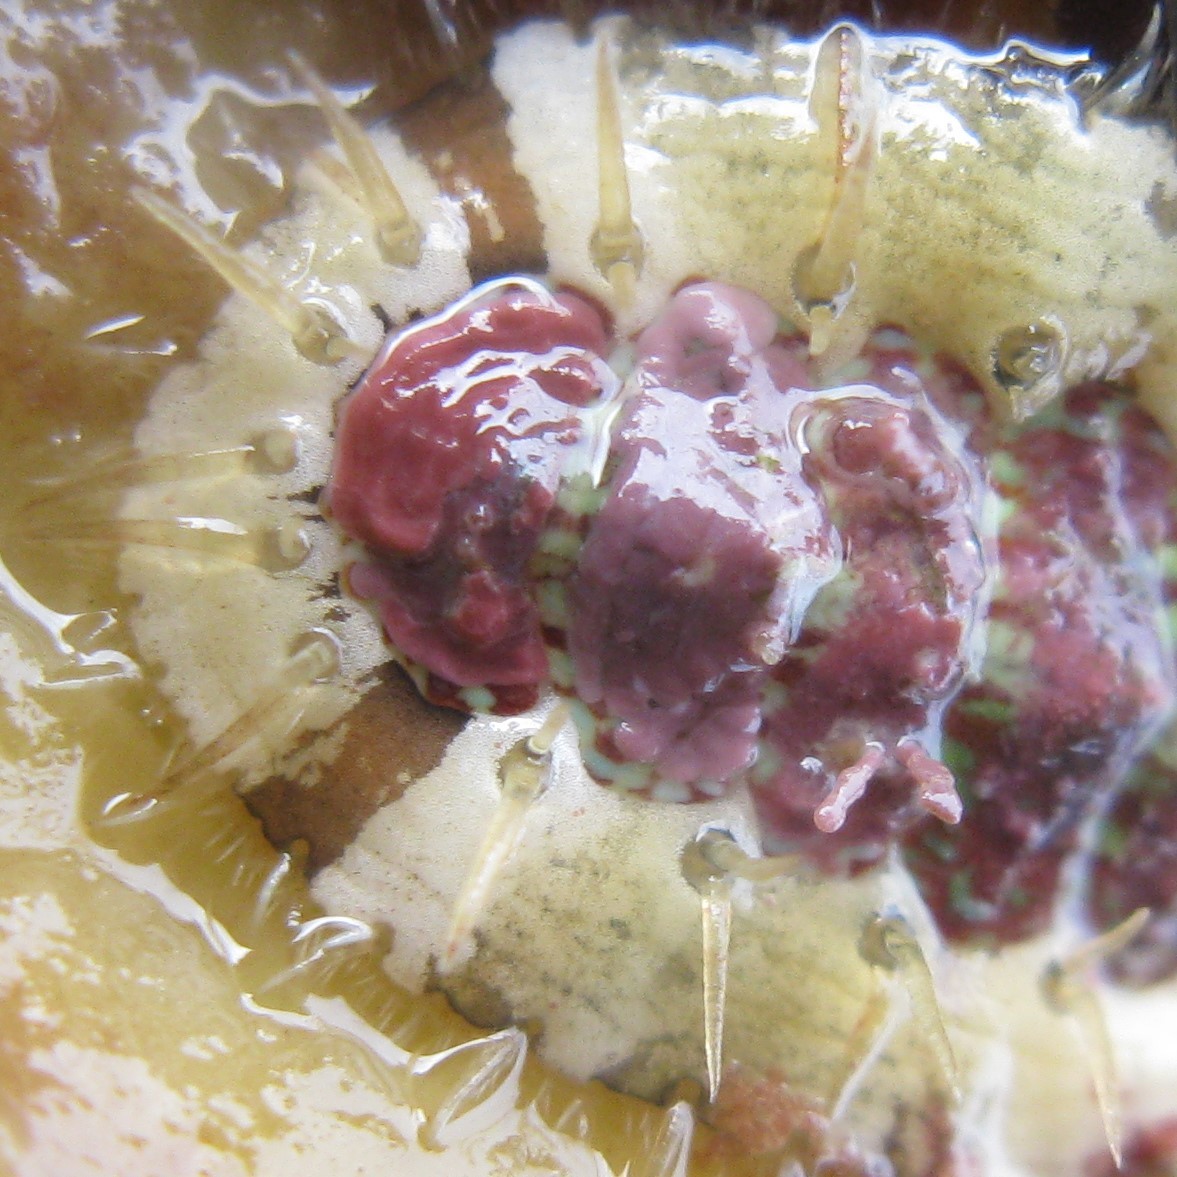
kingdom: Animalia
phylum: Mollusca
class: Polyplacophora
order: Chitonida
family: Mopaliidae
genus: Plaxiphora
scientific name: Plaxiphora caelata
